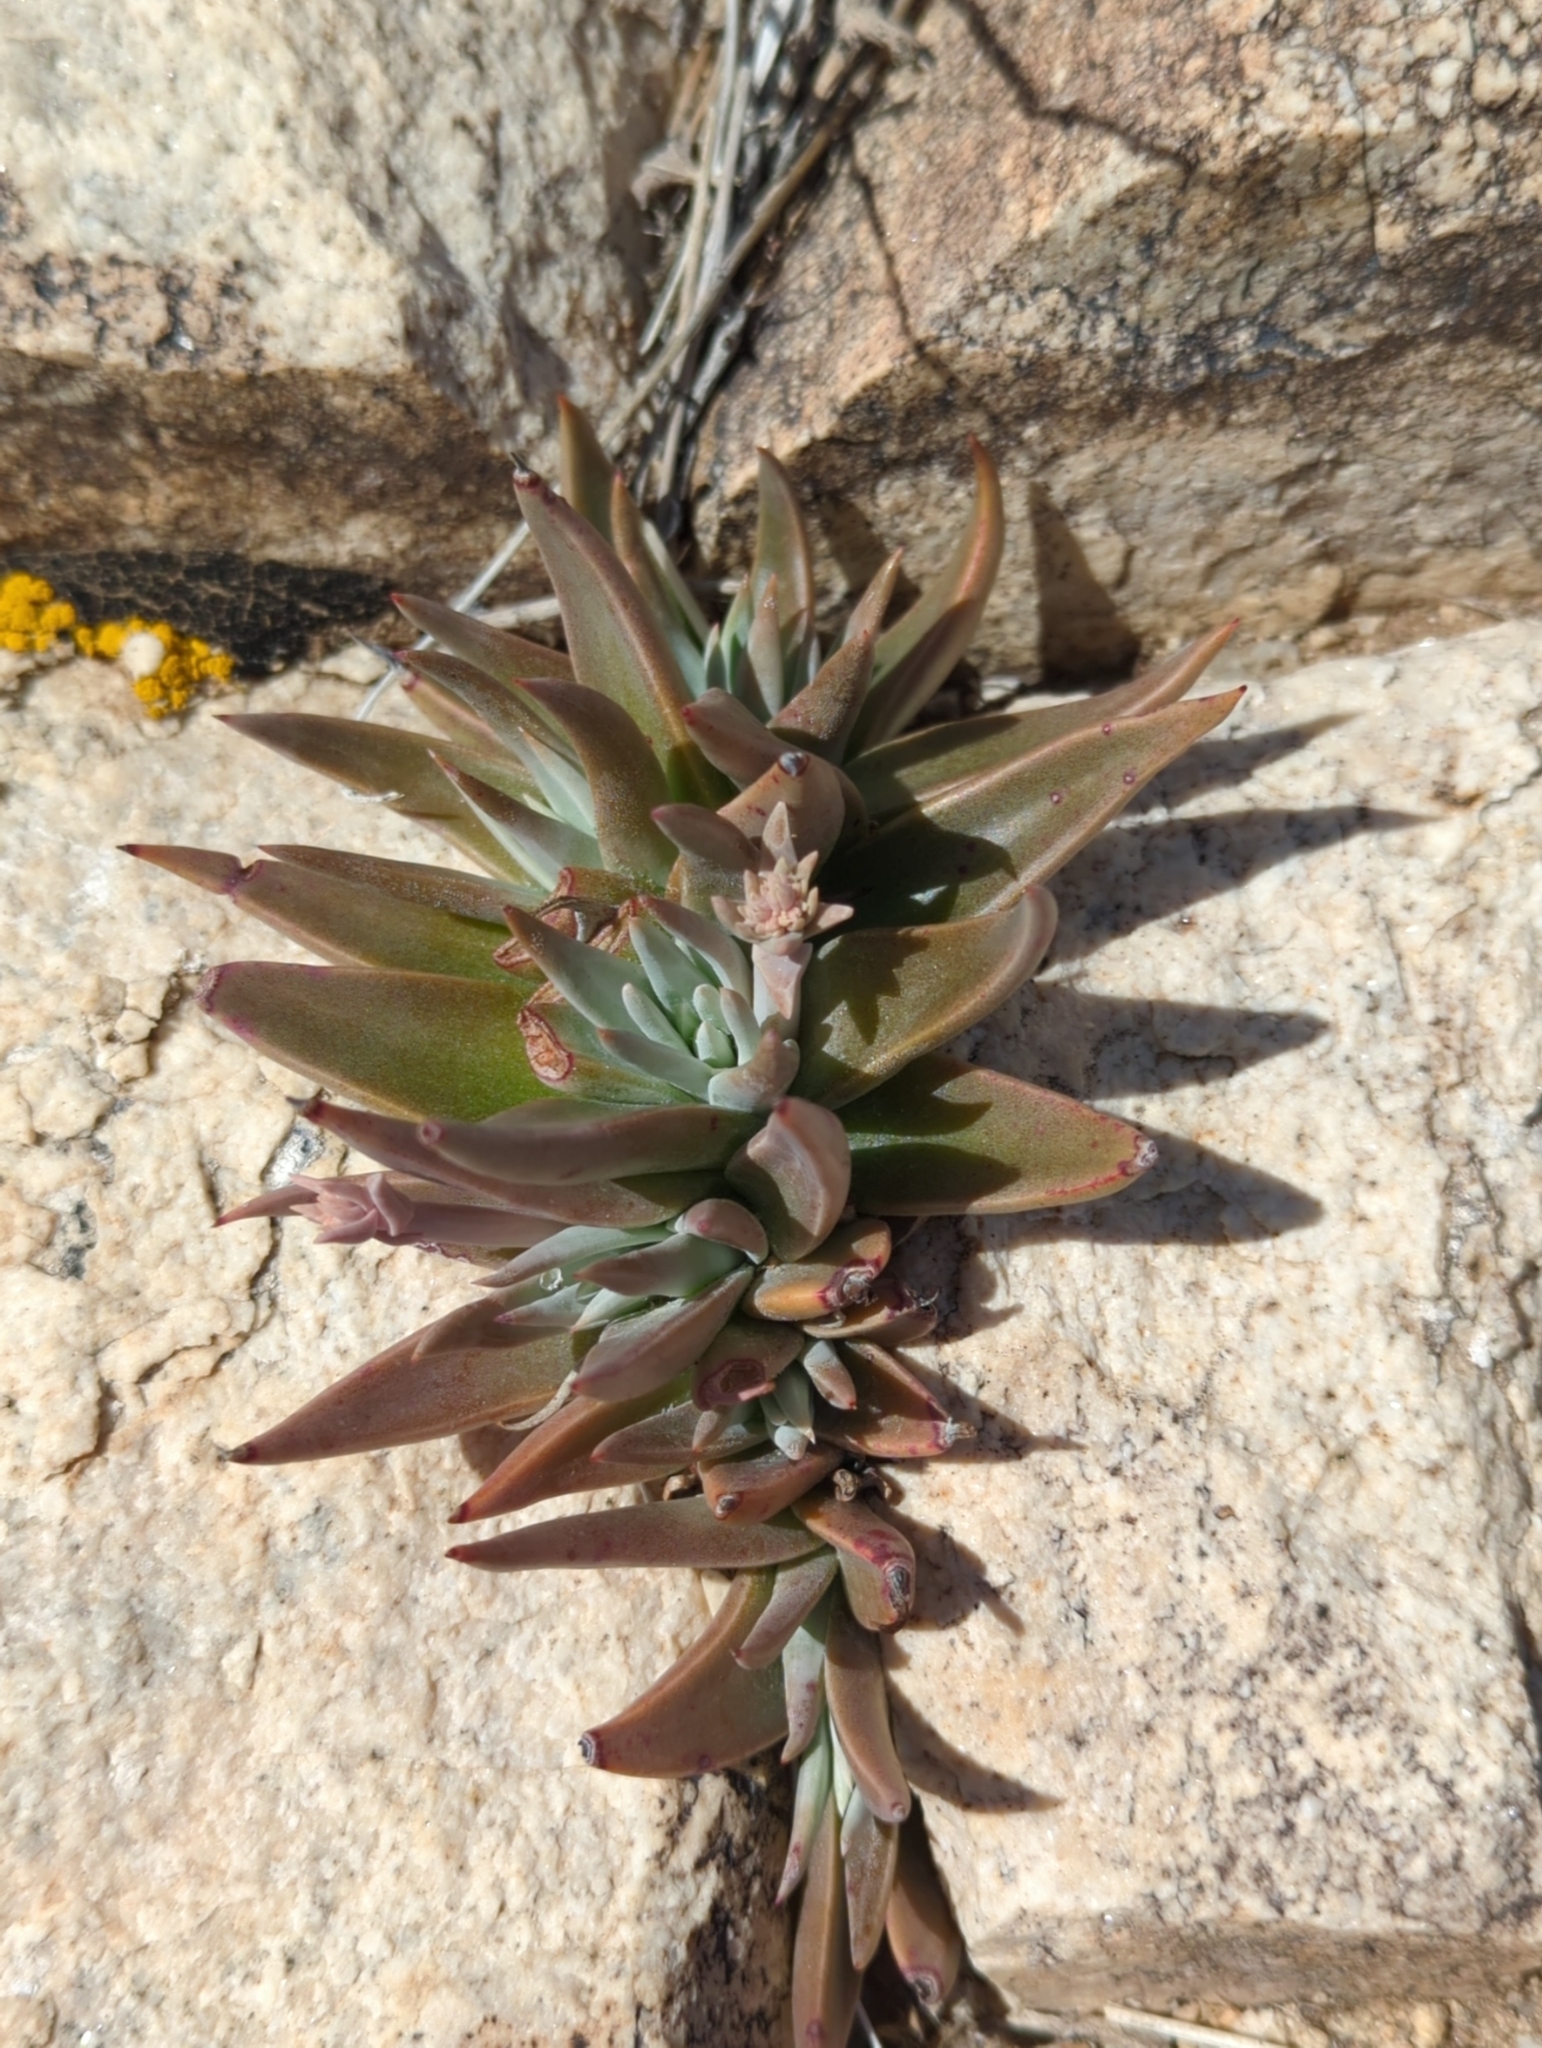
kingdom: Plantae
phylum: Tracheophyta
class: Magnoliopsida
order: Saxifragales
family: Crassulaceae
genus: Dudleya
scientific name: Dudleya saxosa
